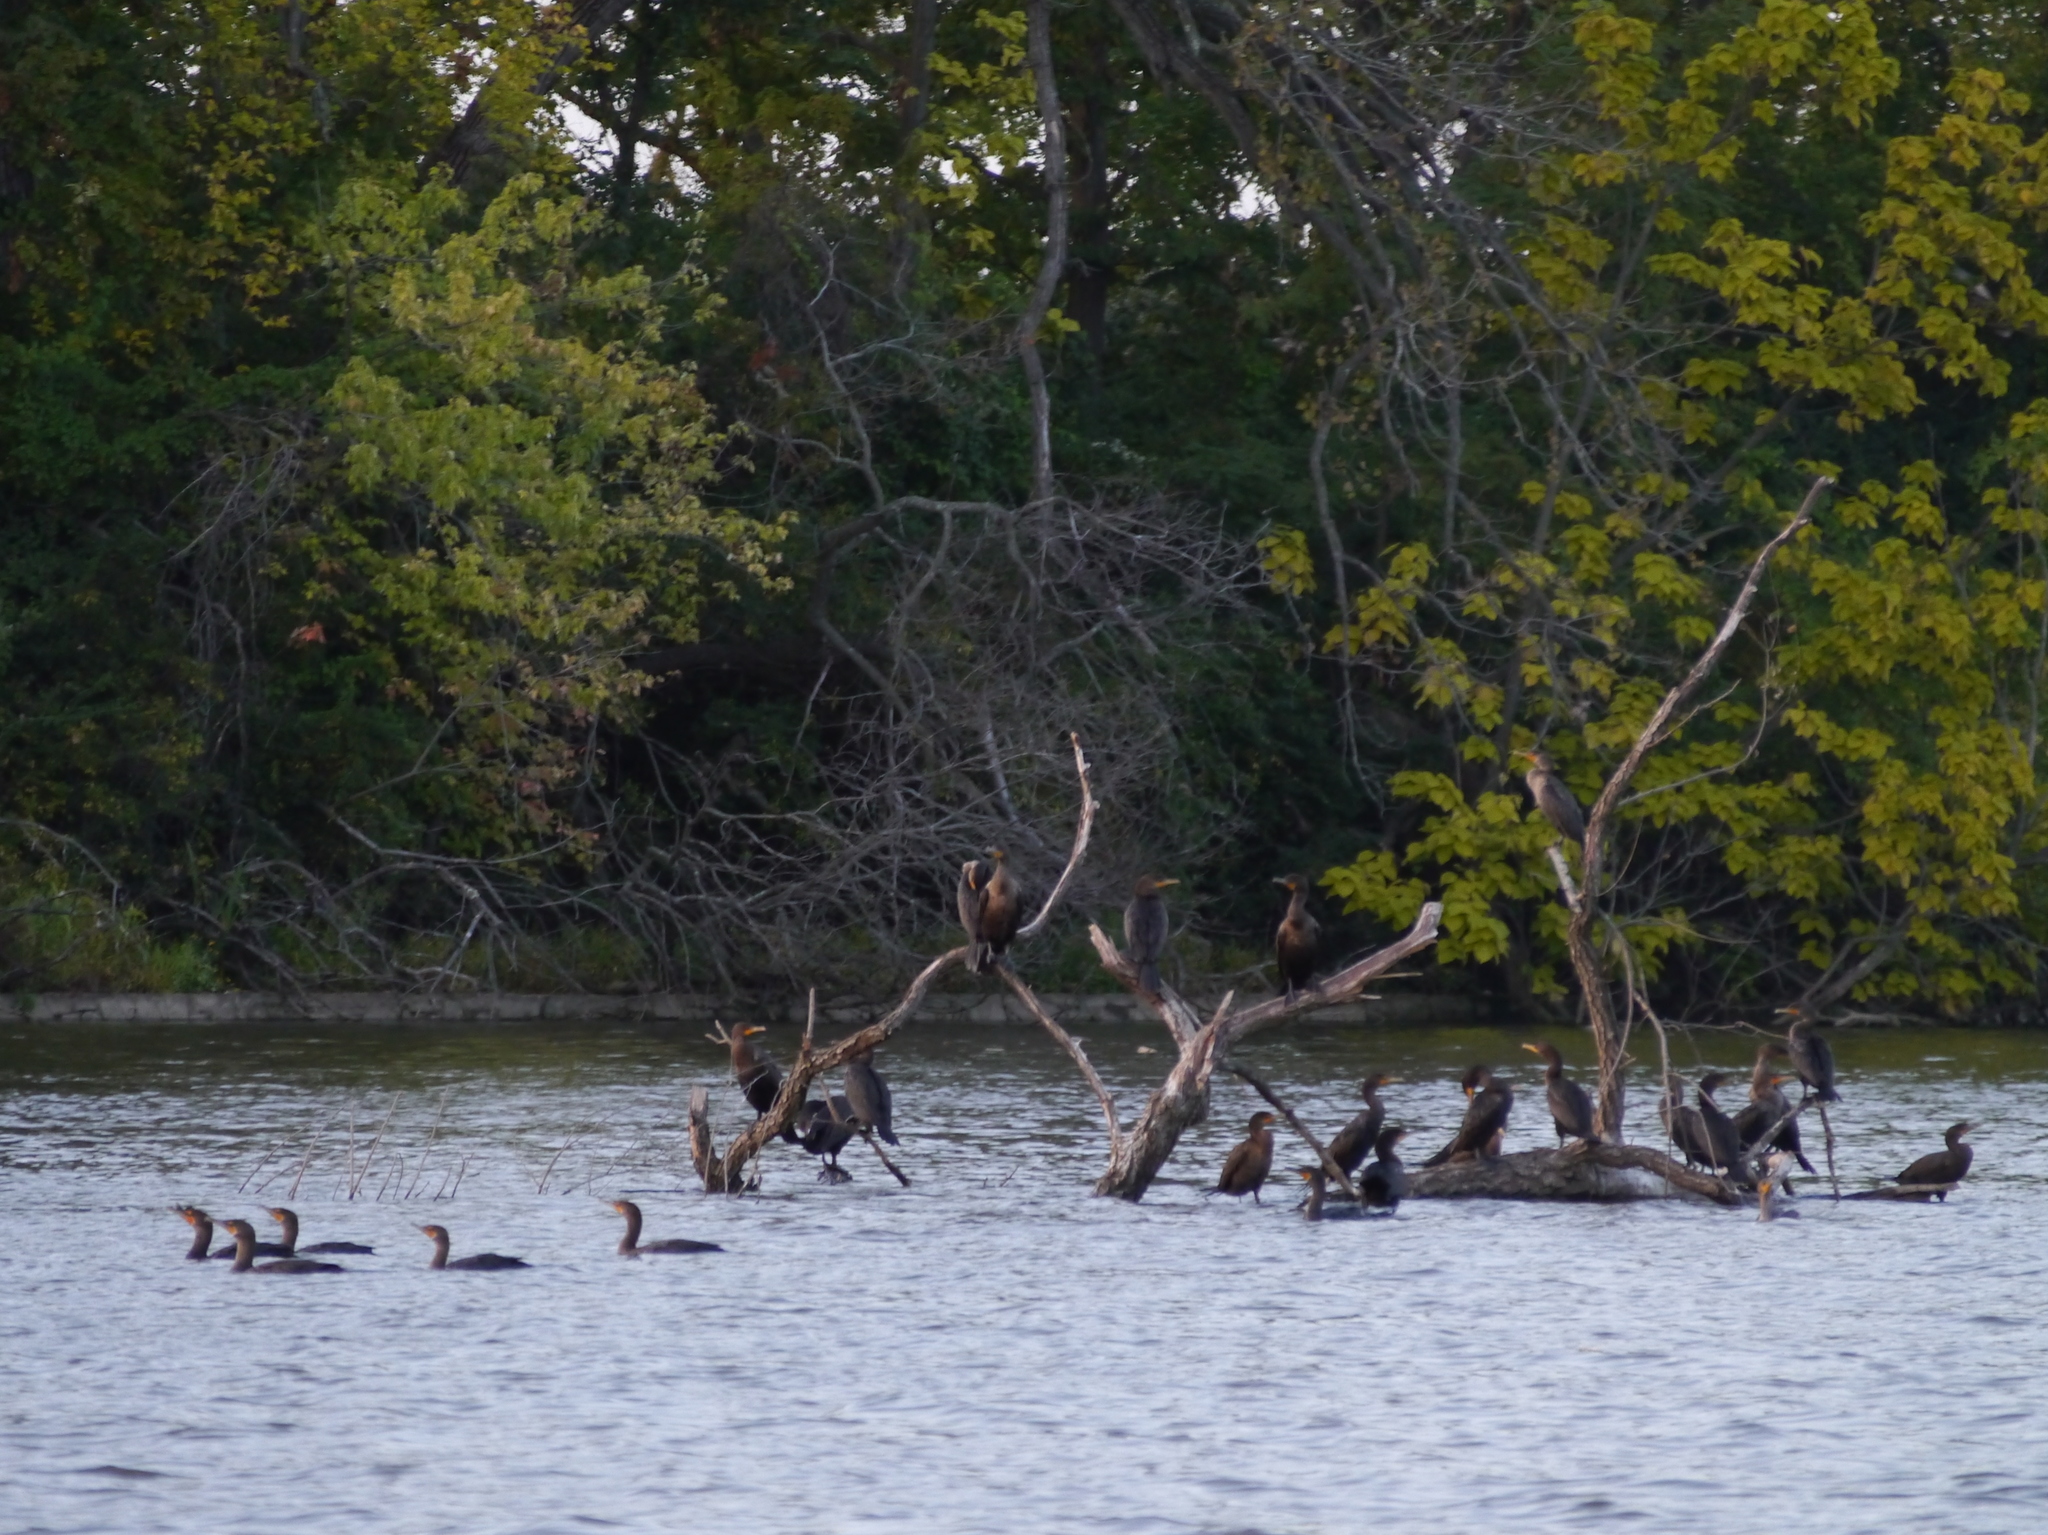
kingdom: Animalia
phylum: Chordata
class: Aves
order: Suliformes
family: Phalacrocoracidae
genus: Phalacrocorax
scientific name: Phalacrocorax auritus
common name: Double-crested cormorant
